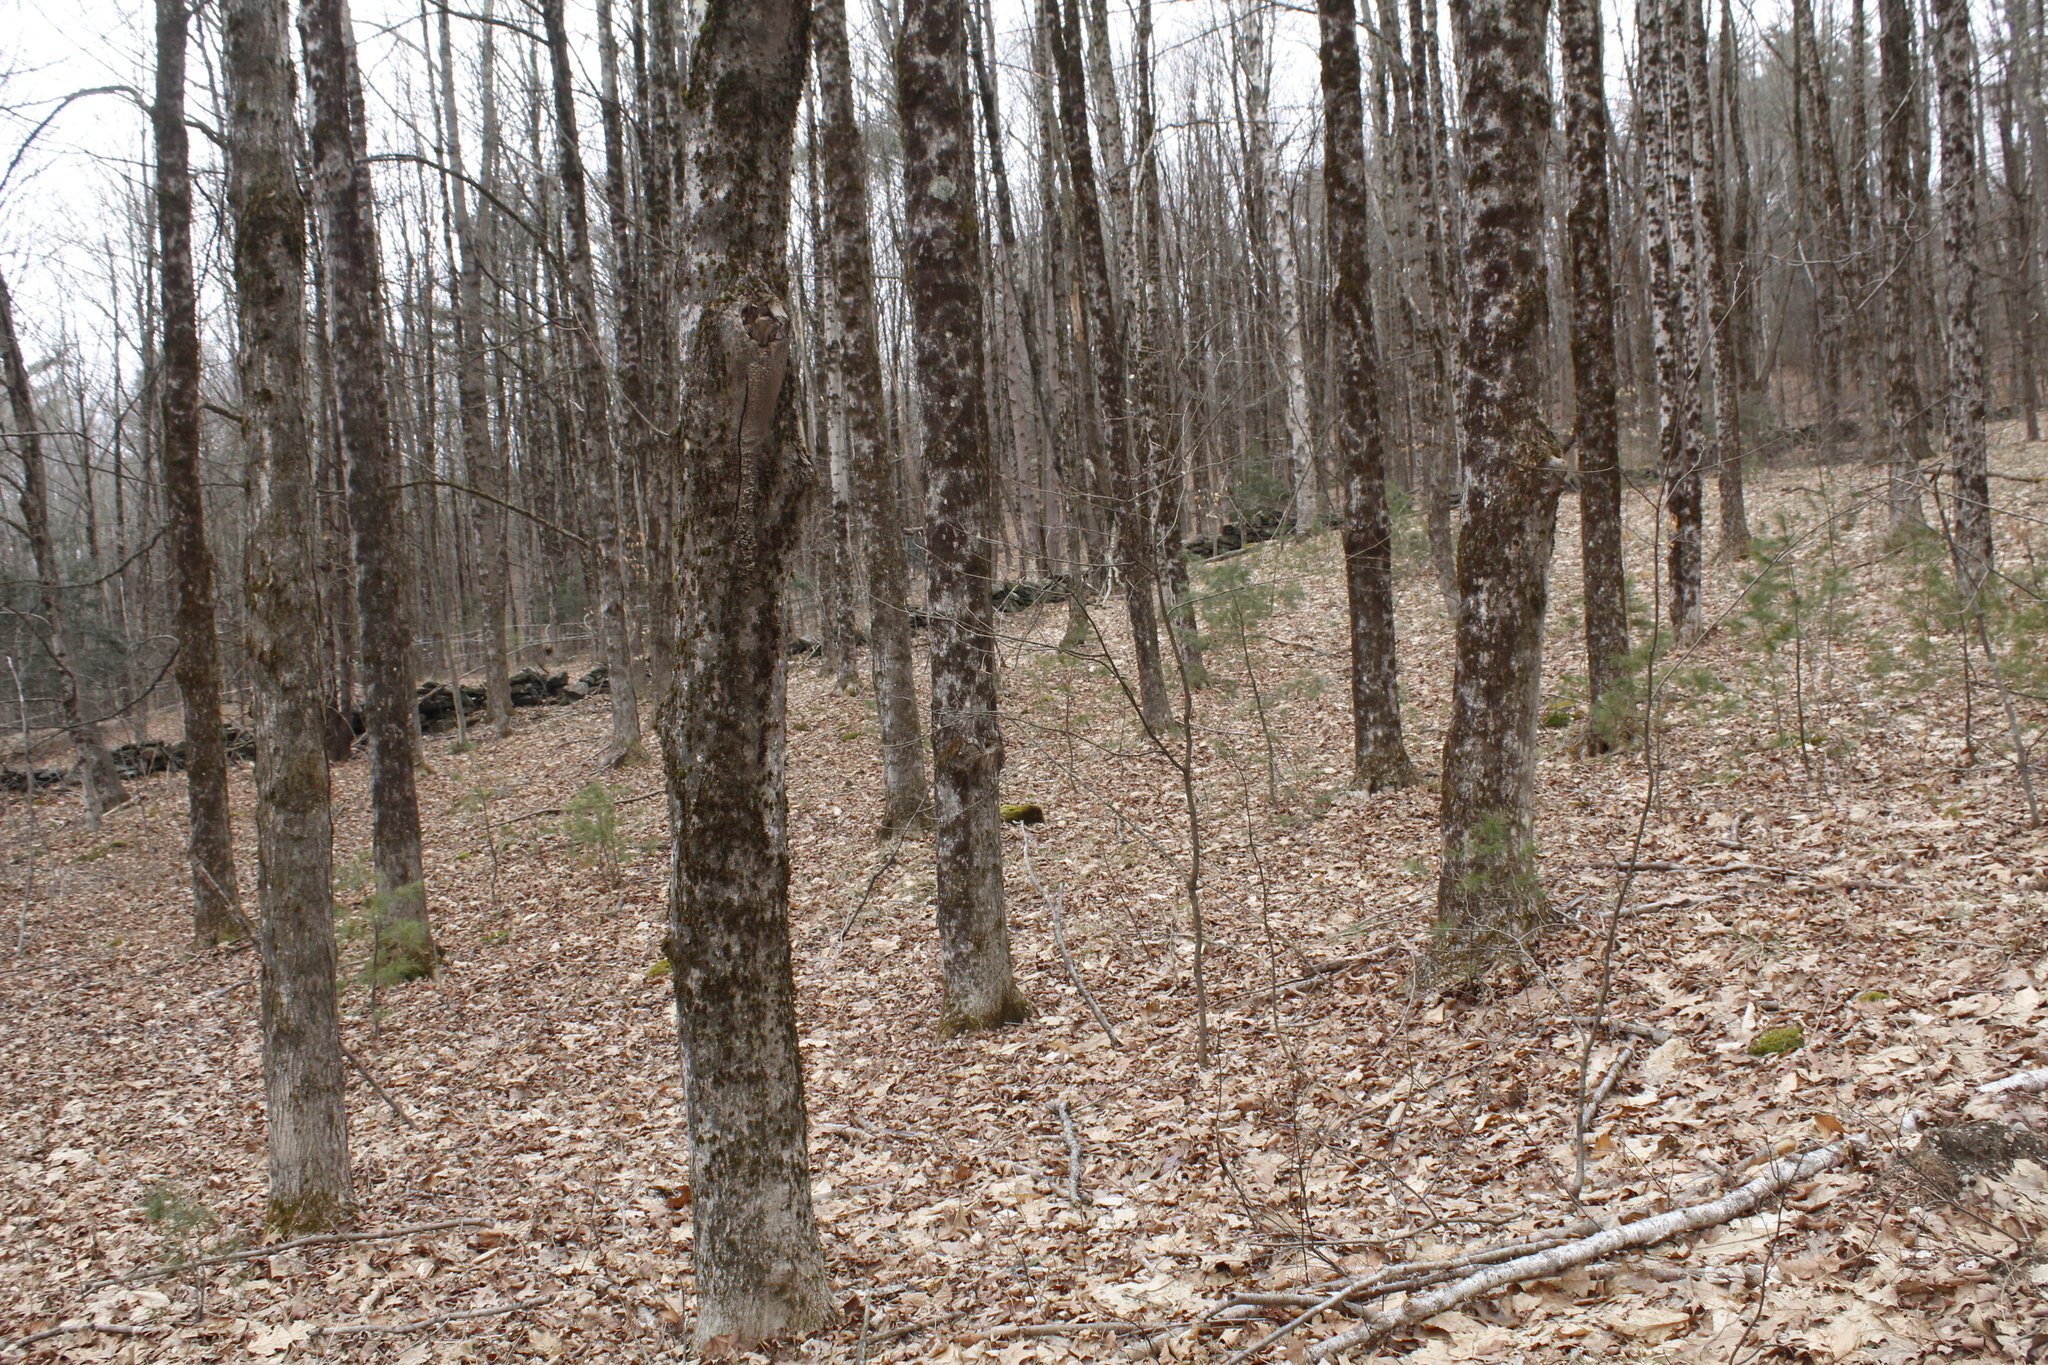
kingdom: Plantae
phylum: Tracheophyta
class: Magnoliopsida
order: Fagales
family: Fagaceae
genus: Fagus
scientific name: Fagus grandifolia
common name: American beech
